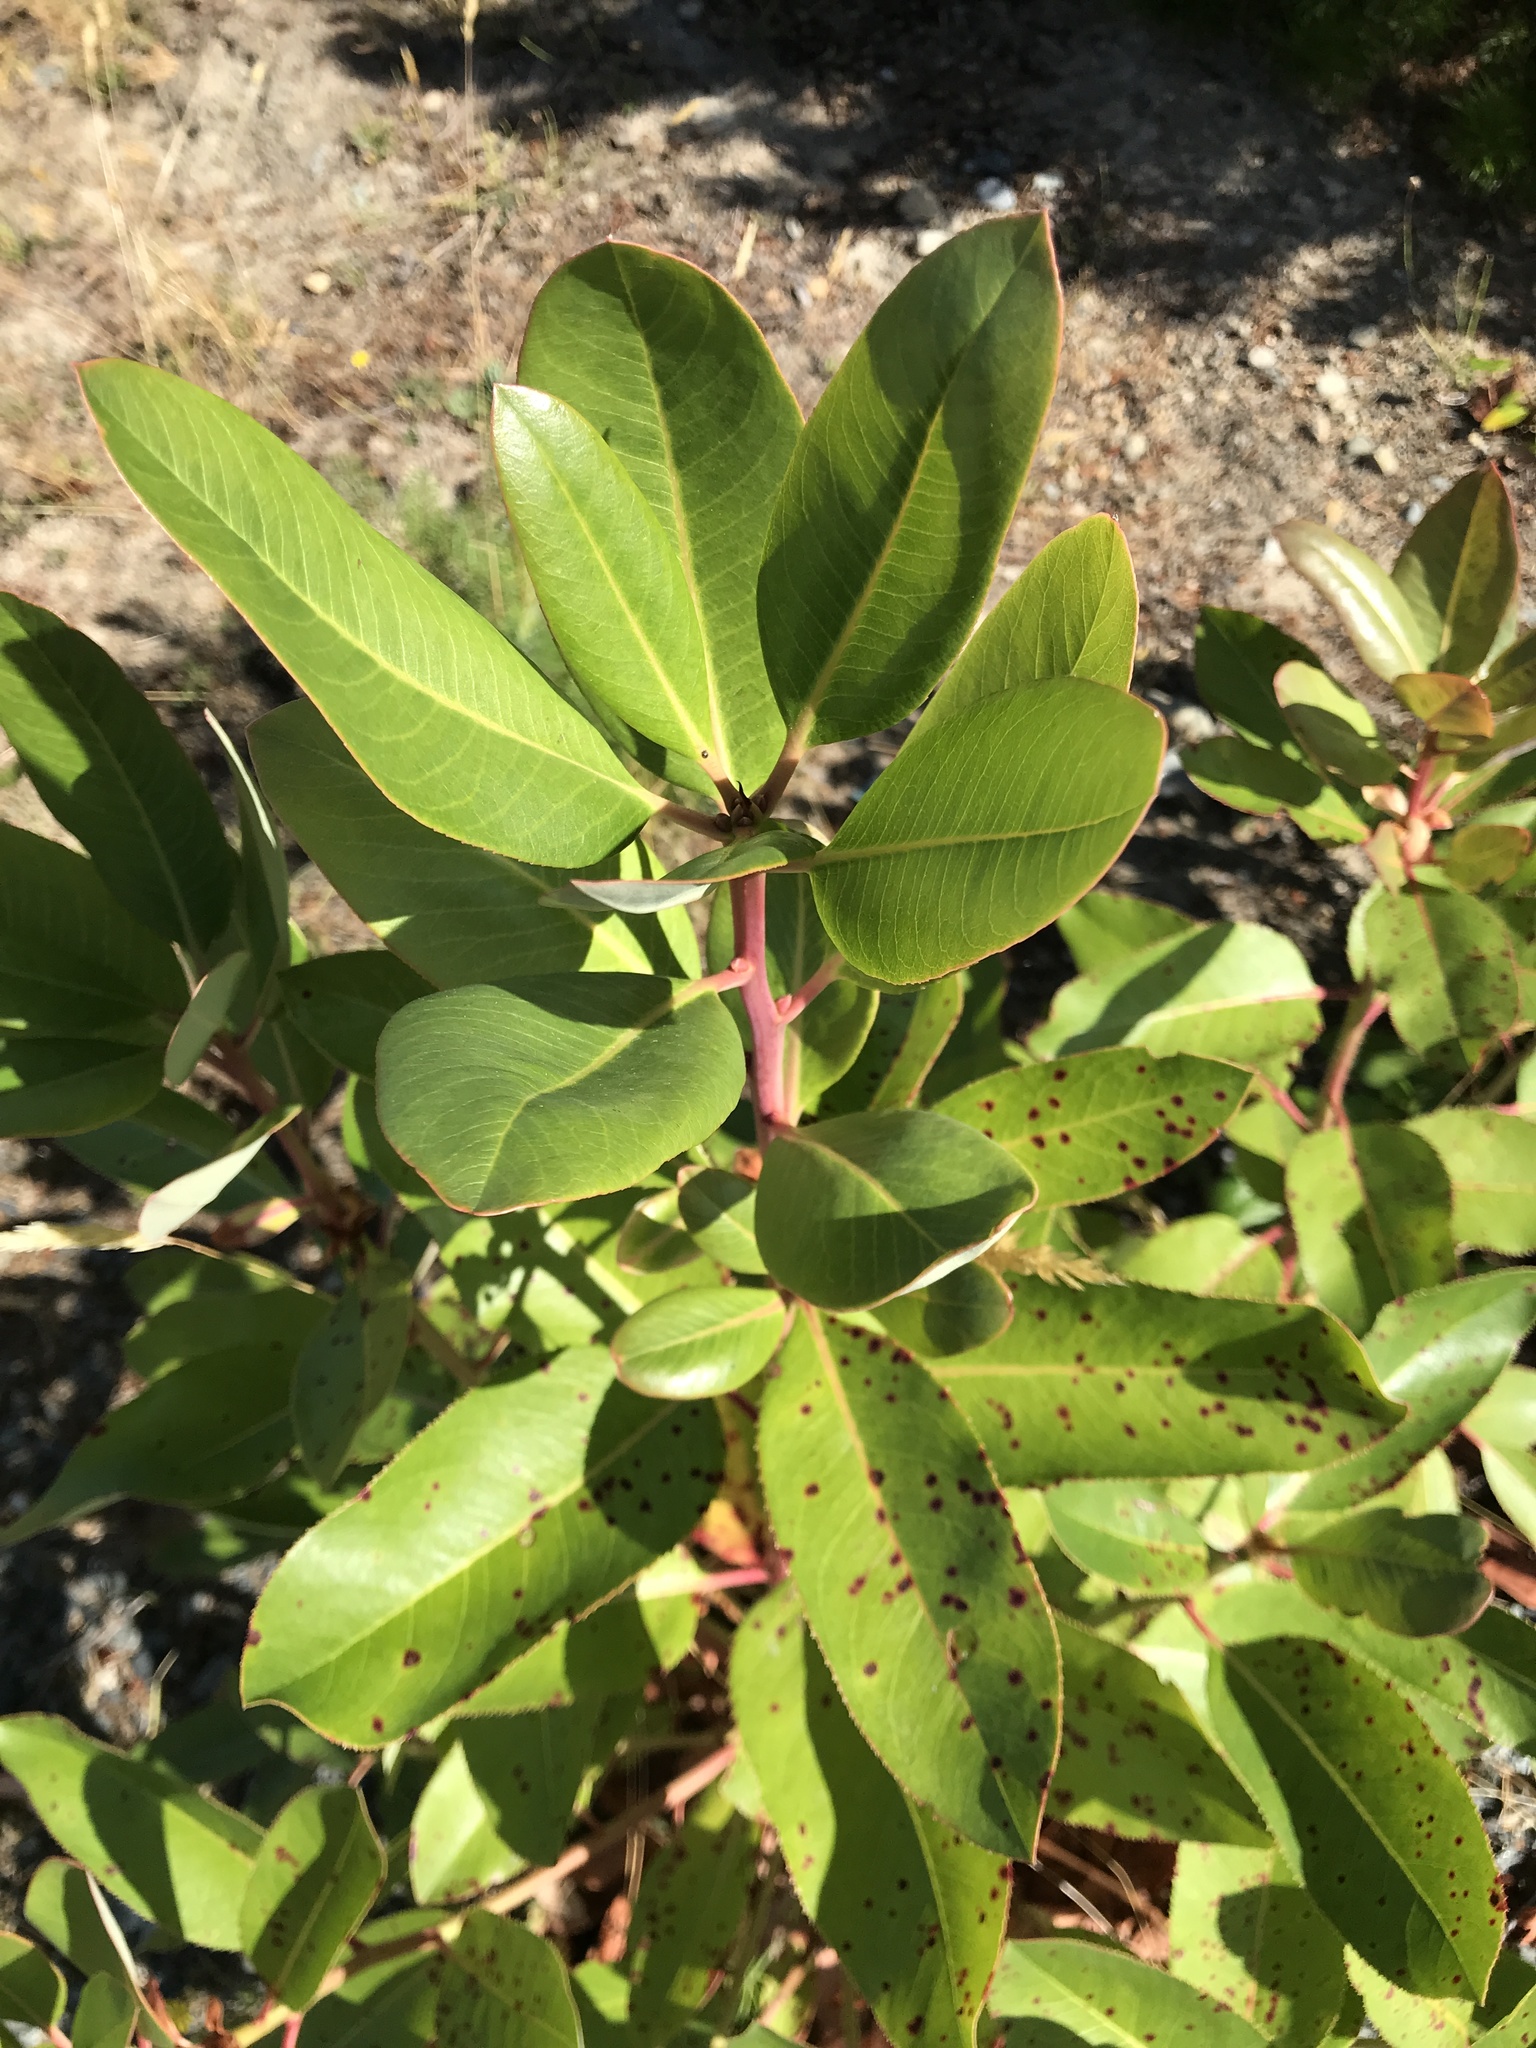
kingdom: Plantae
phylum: Tracheophyta
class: Magnoliopsida
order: Ericales
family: Ericaceae
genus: Arbutus
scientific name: Arbutus menziesii
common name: Pacific madrone
